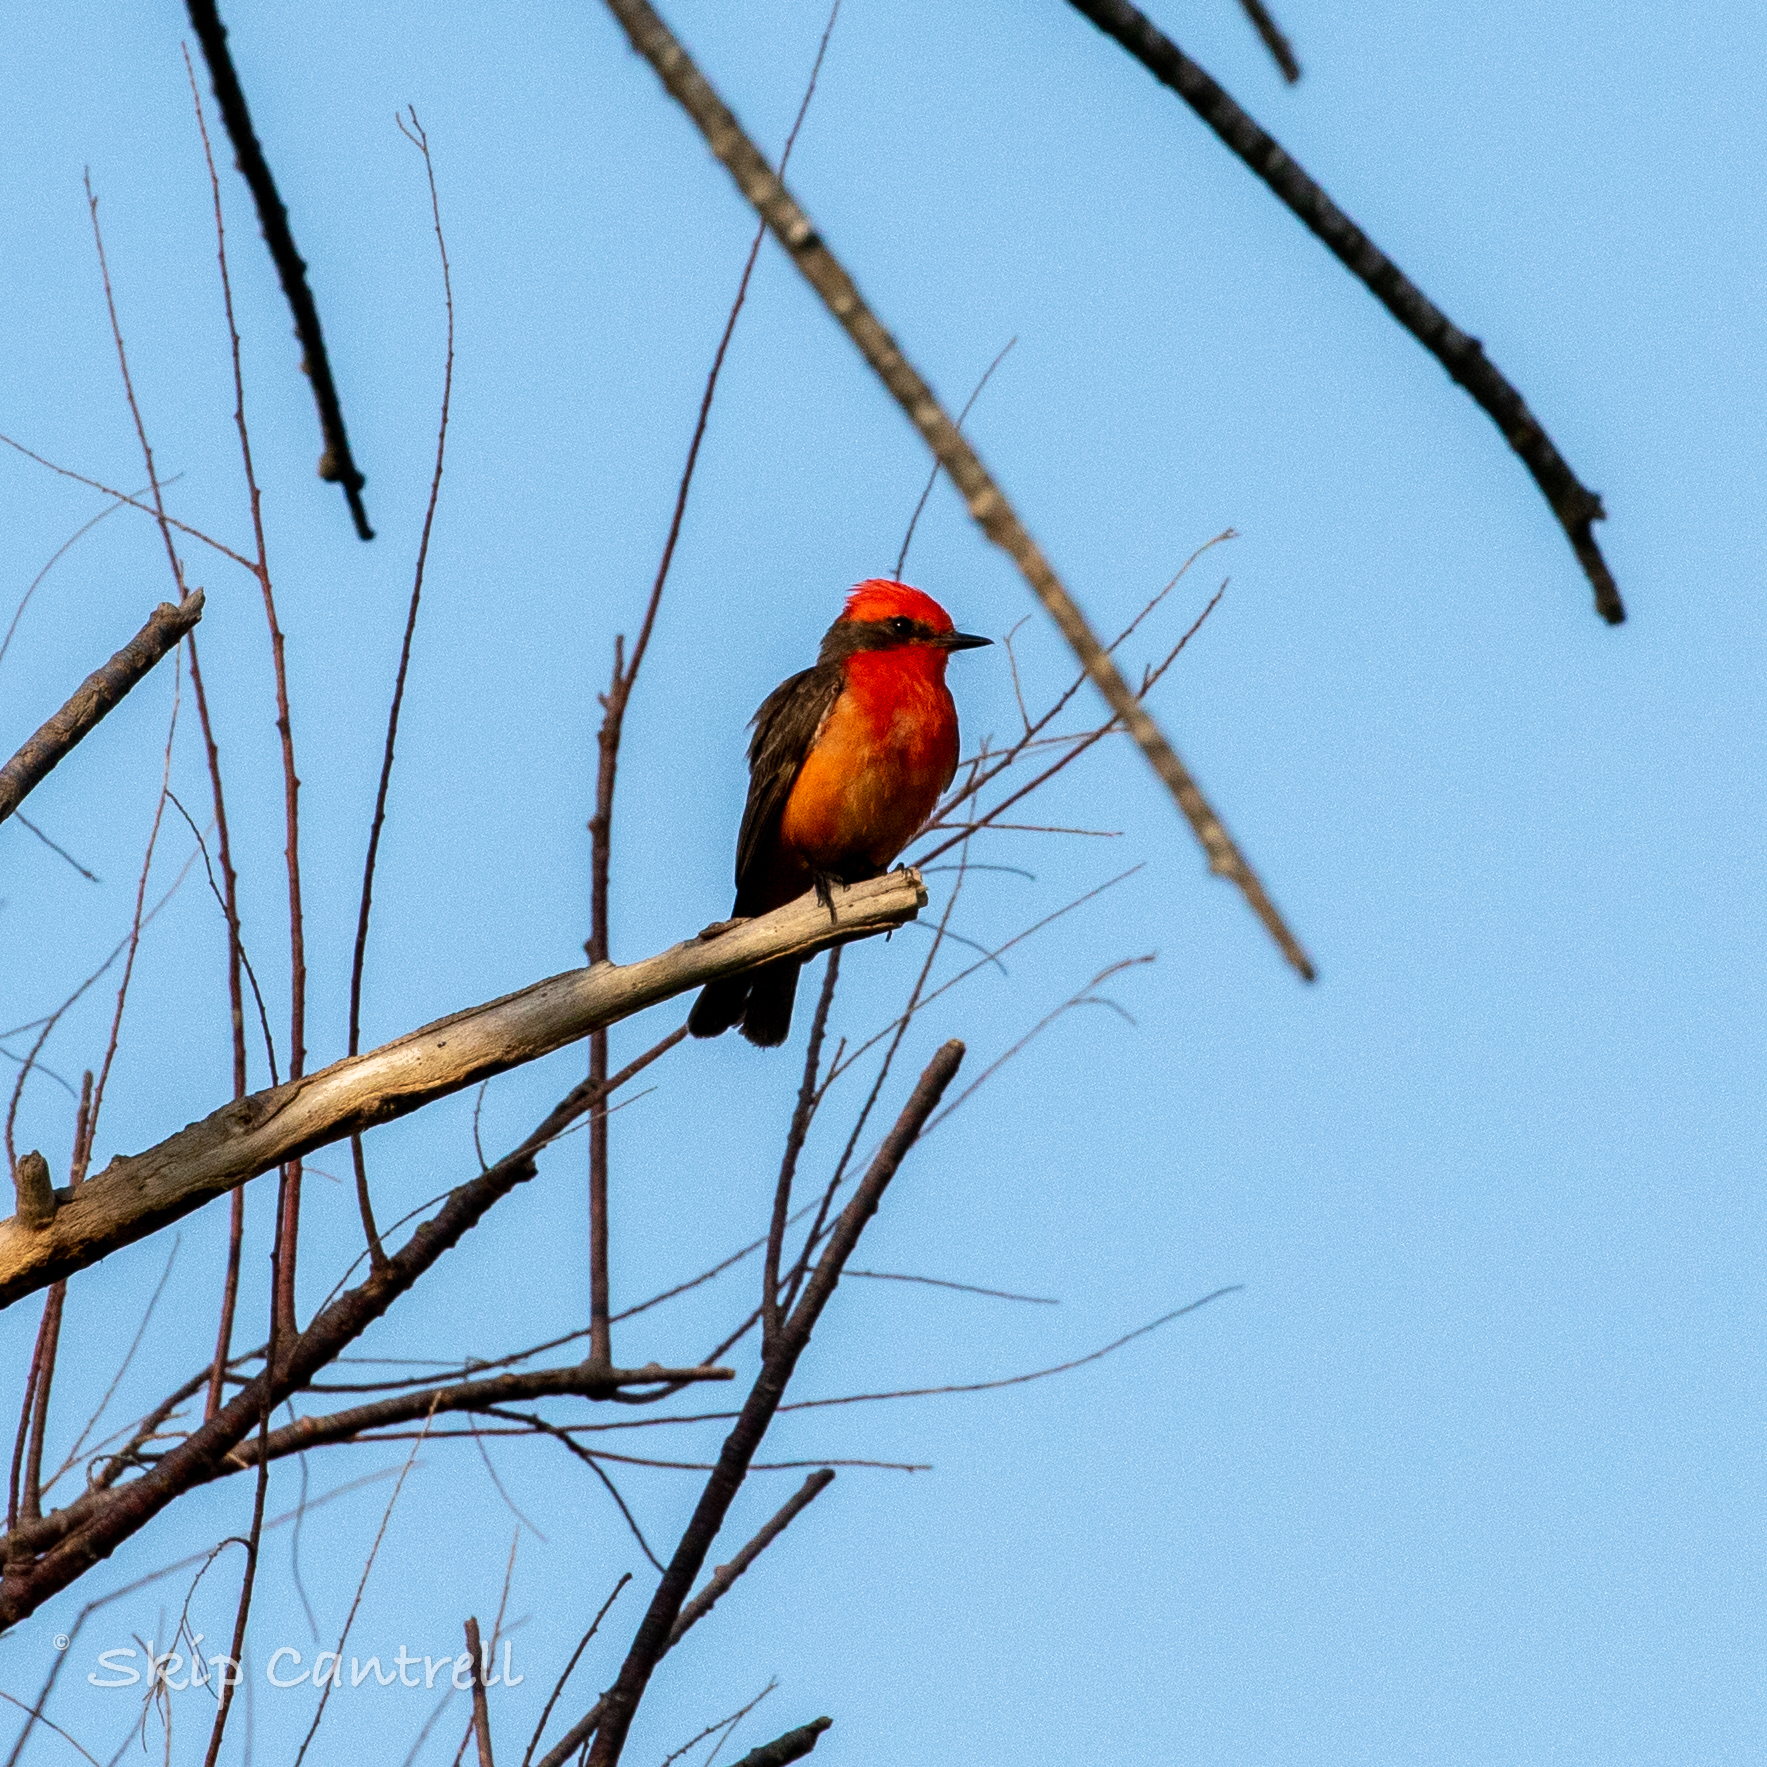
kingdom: Animalia
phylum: Chordata
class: Aves
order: Passeriformes
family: Tyrannidae
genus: Pyrocephalus
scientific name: Pyrocephalus rubinus
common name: Vermilion flycatcher
